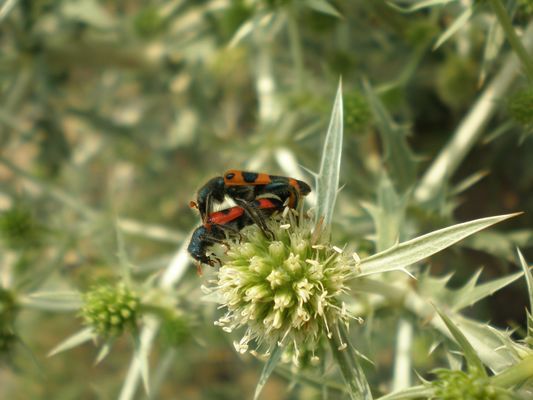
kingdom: Animalia
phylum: Arthropoda
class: Insecta
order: Coleoptera
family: Cleridae
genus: Trichodes
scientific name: Trichodes leucopsideus
